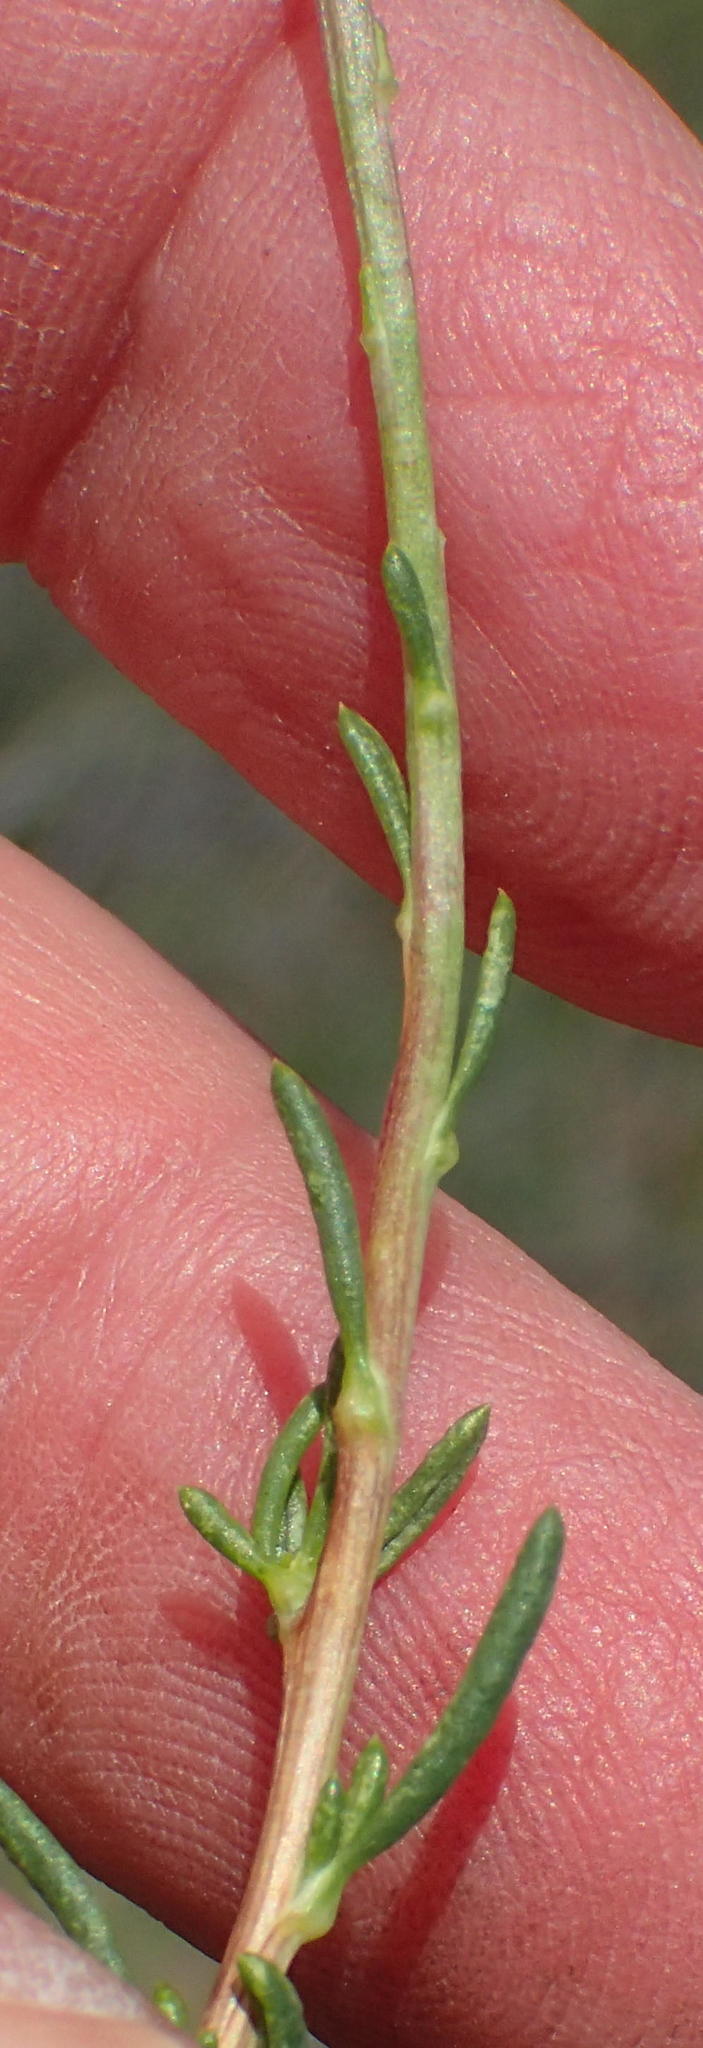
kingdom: Plantae
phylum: Tracheophyta
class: Magnoliopsida
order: Asterales
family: Asteraceae
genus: Felicia
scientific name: Felicia filifolia
